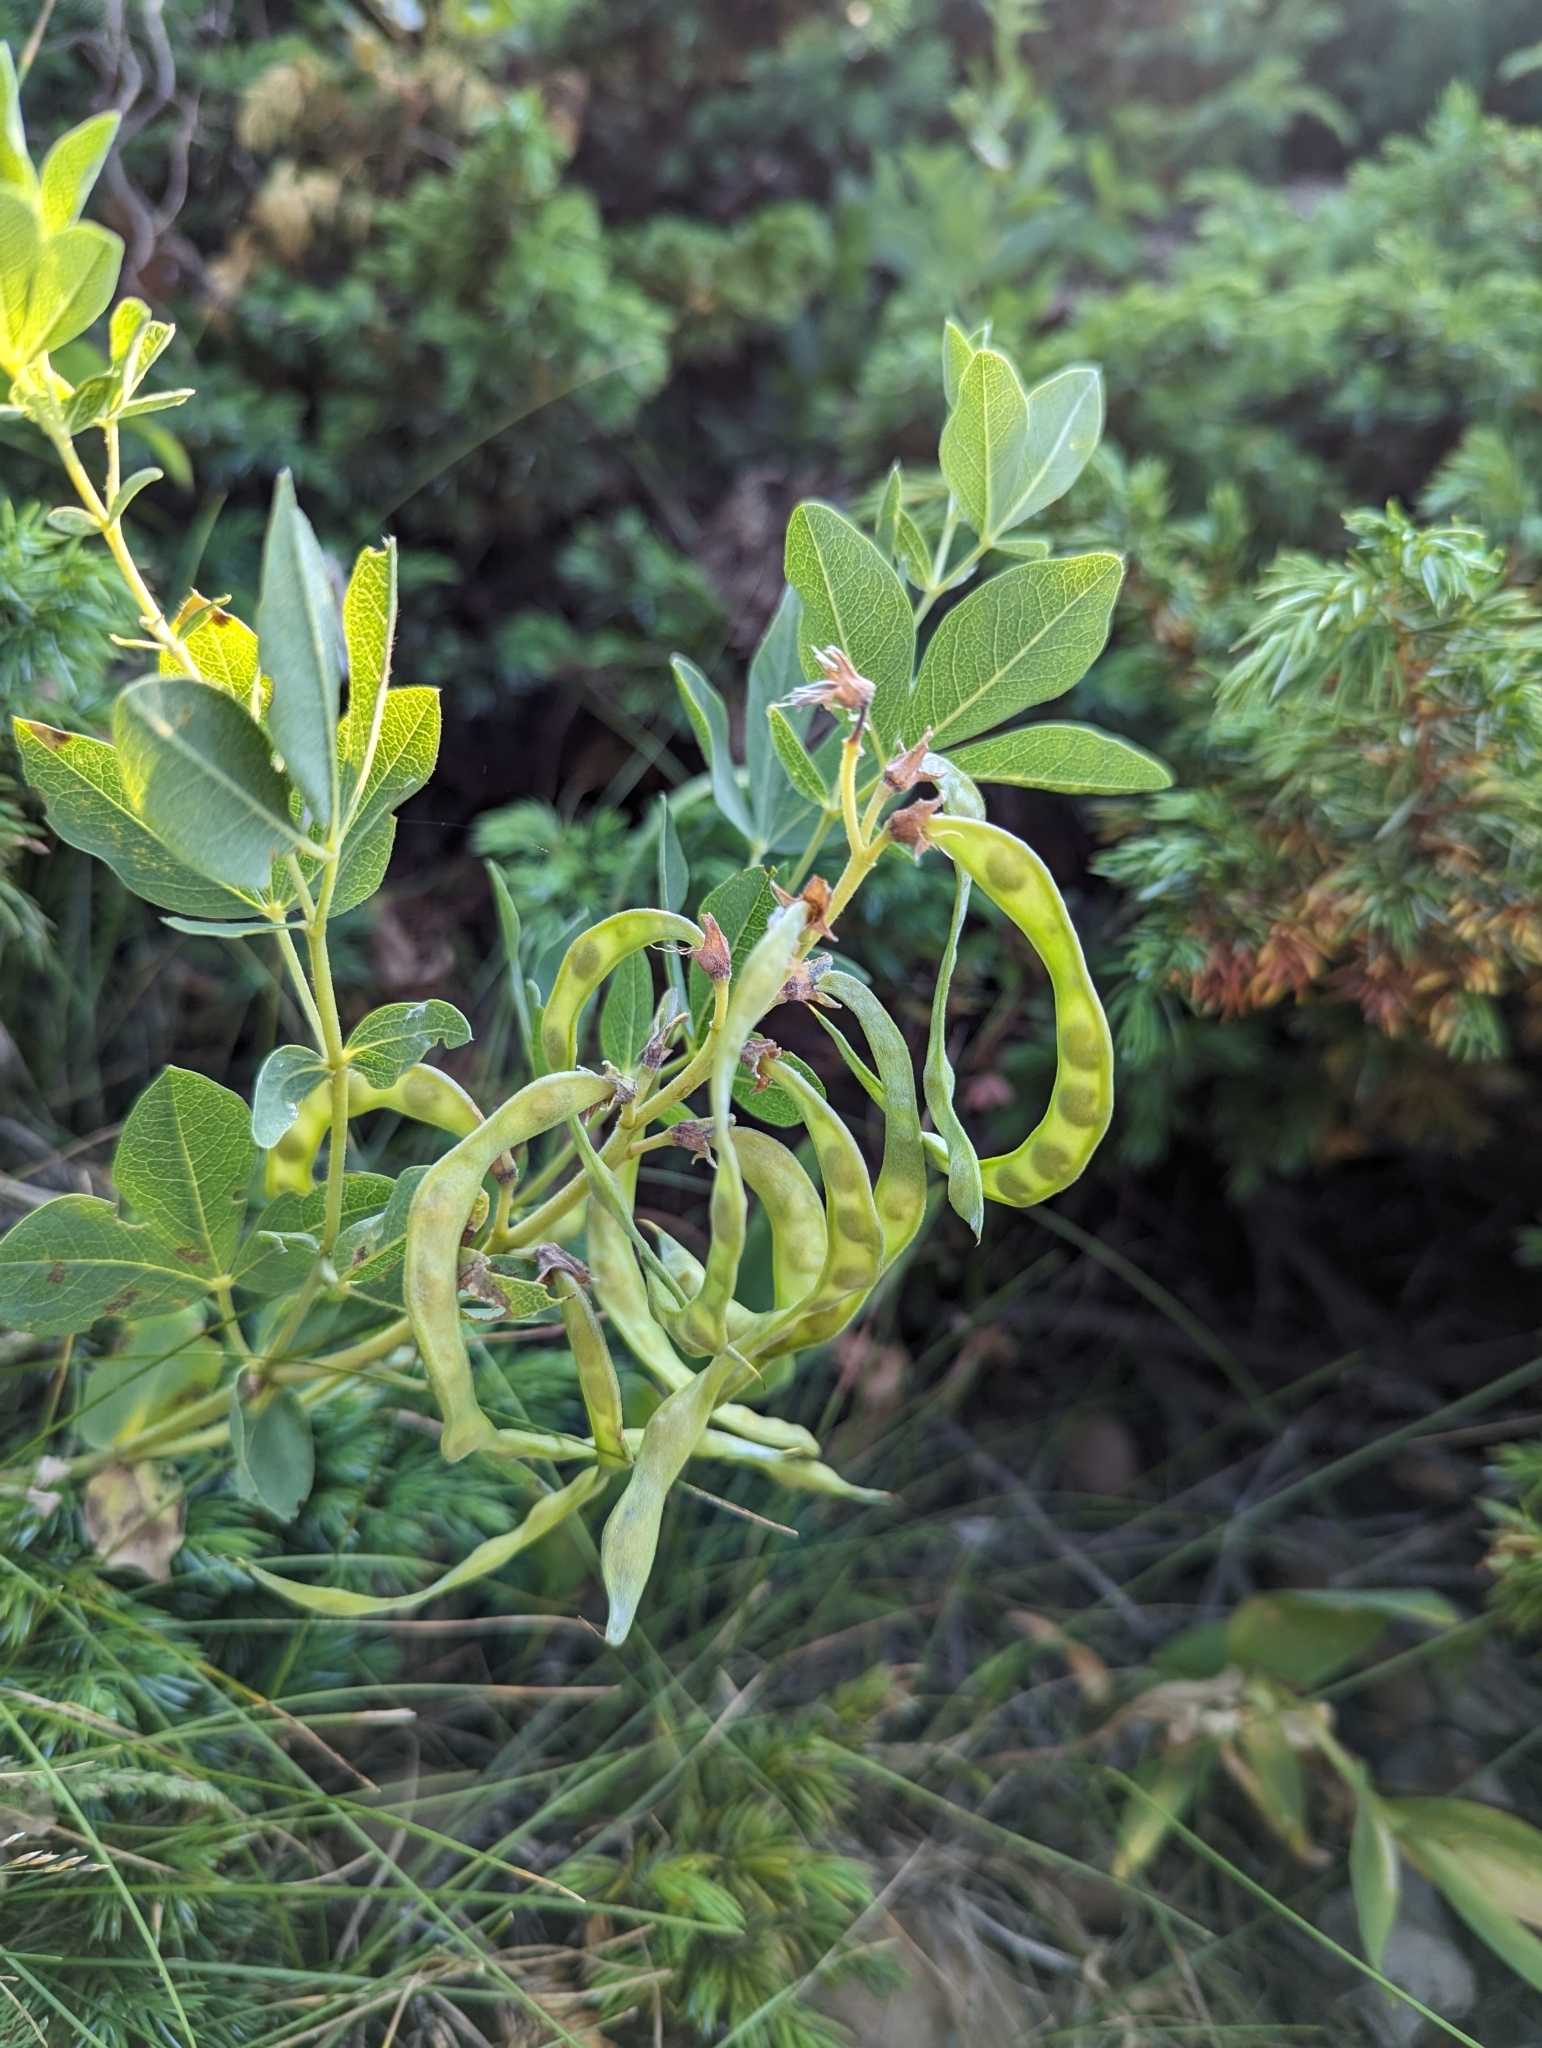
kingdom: Plantae
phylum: Tracheophyta
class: Magnoliopsida
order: Fabales
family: Fabaceae
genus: Thermopsis
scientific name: Thermopsis rhombifolia
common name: Circle-pod-pea
